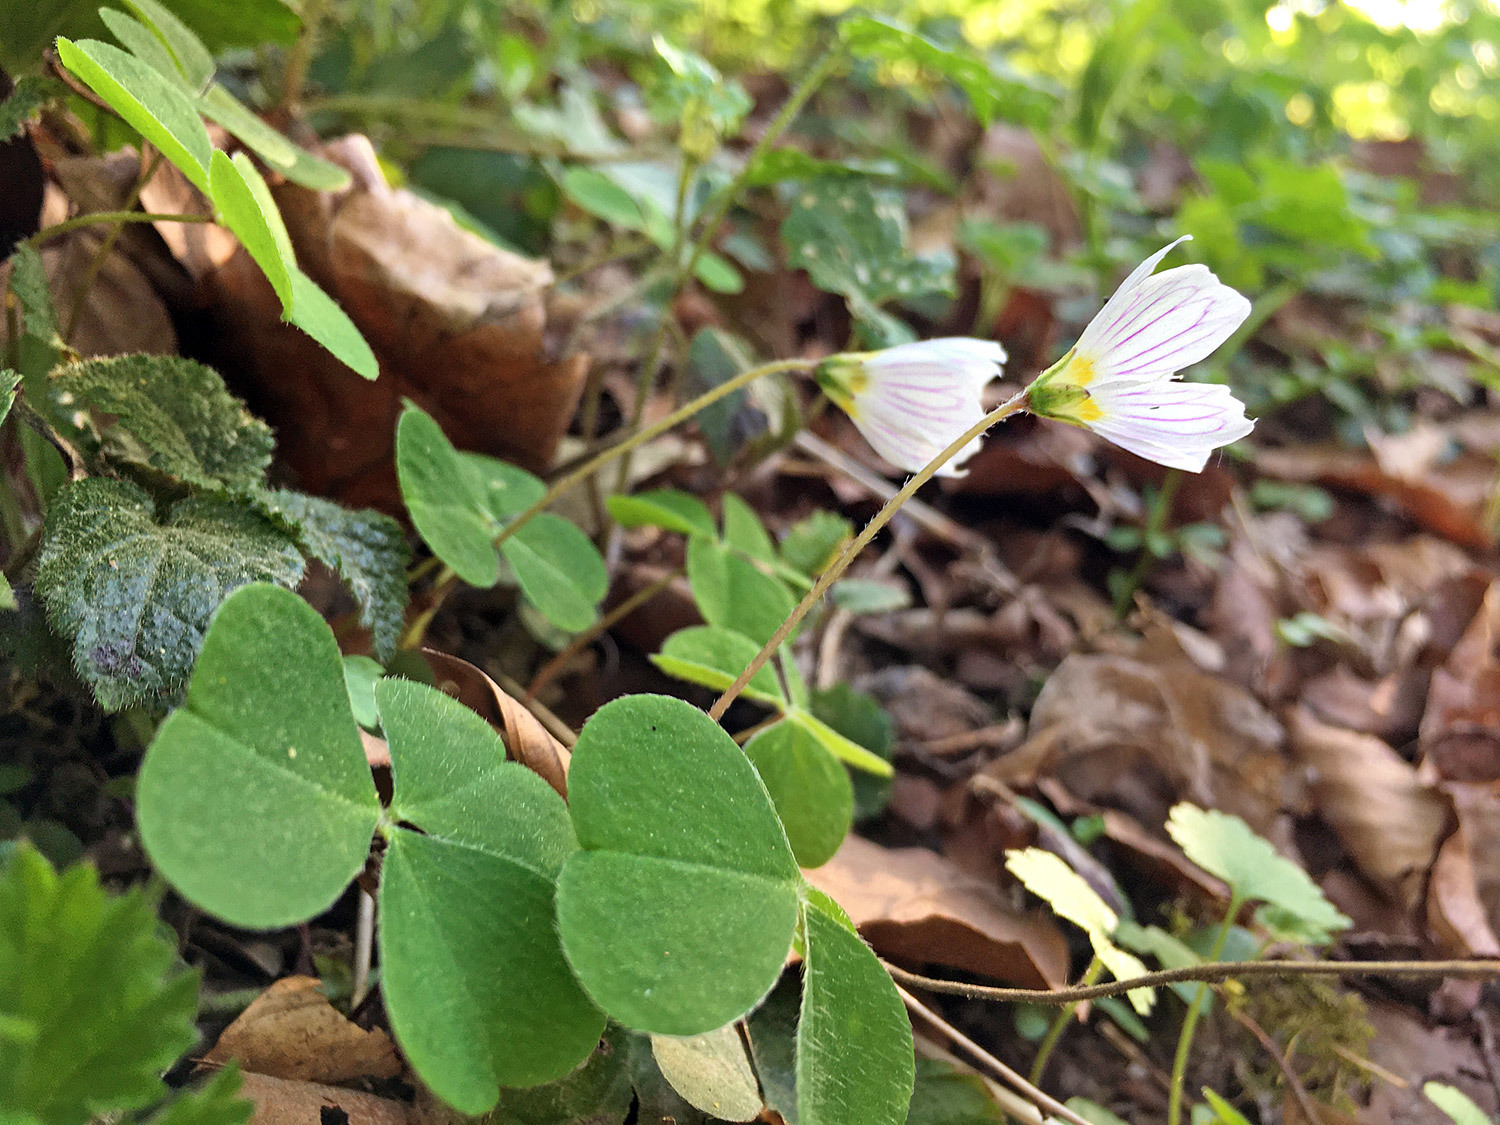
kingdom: Plantae
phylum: Tracheophyta
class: Magnoliopsida
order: Oxalidales
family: Oxalidaceae
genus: Oxalis
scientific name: Oxalis acetosella
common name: Wood-sorrel
